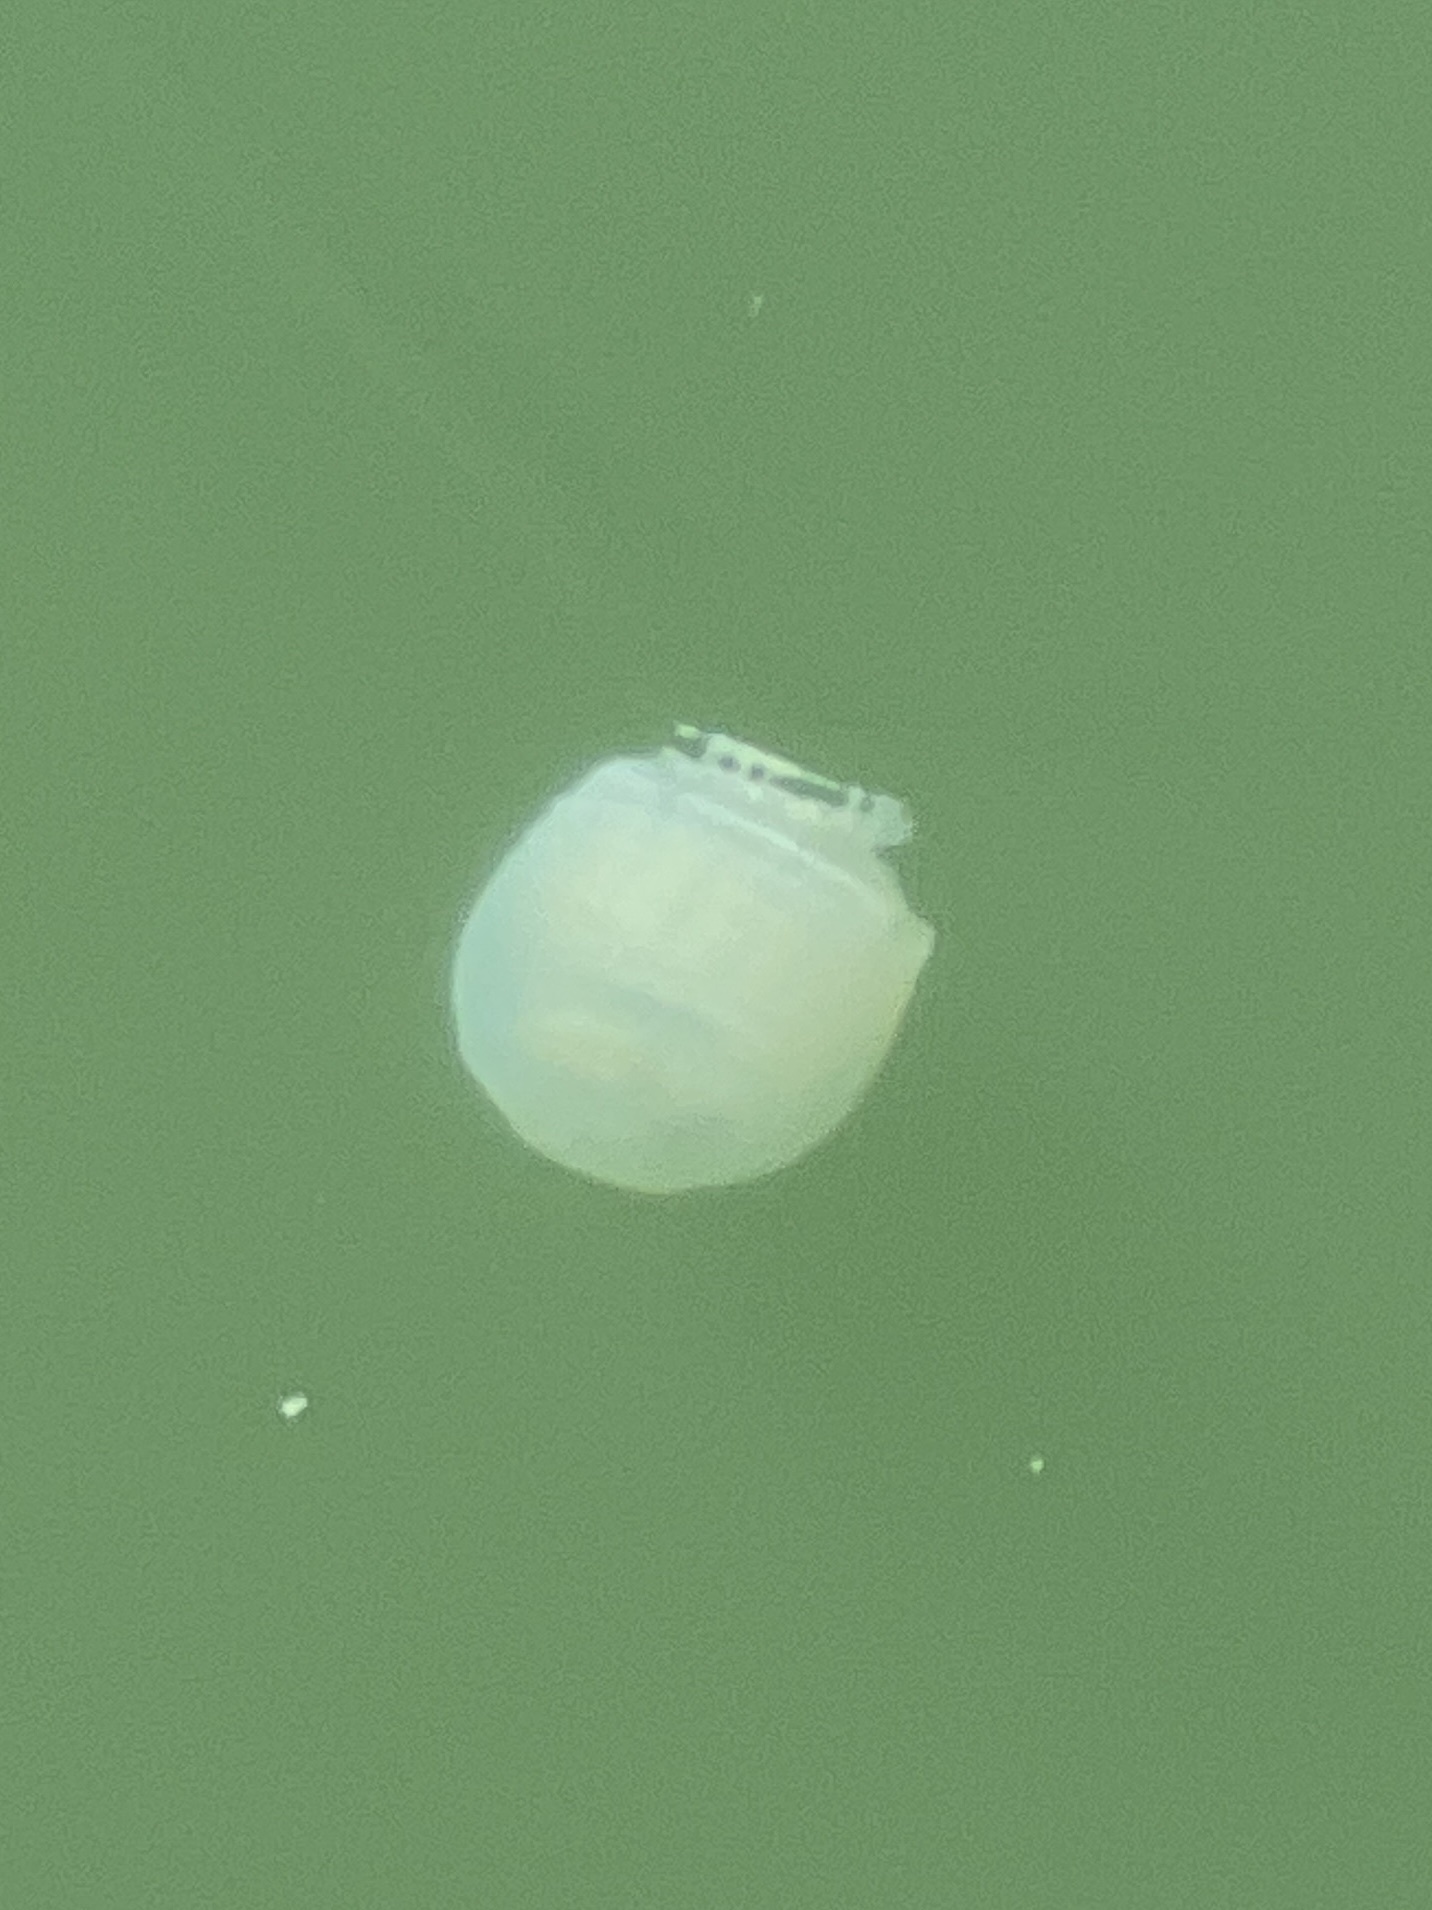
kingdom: Animalia
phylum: Cnidaria
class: Scyphozoa
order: Rhizostomeae
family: Stomolophidae
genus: Stomolophus
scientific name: Stomolophus meleagris
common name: Cabbagehead
